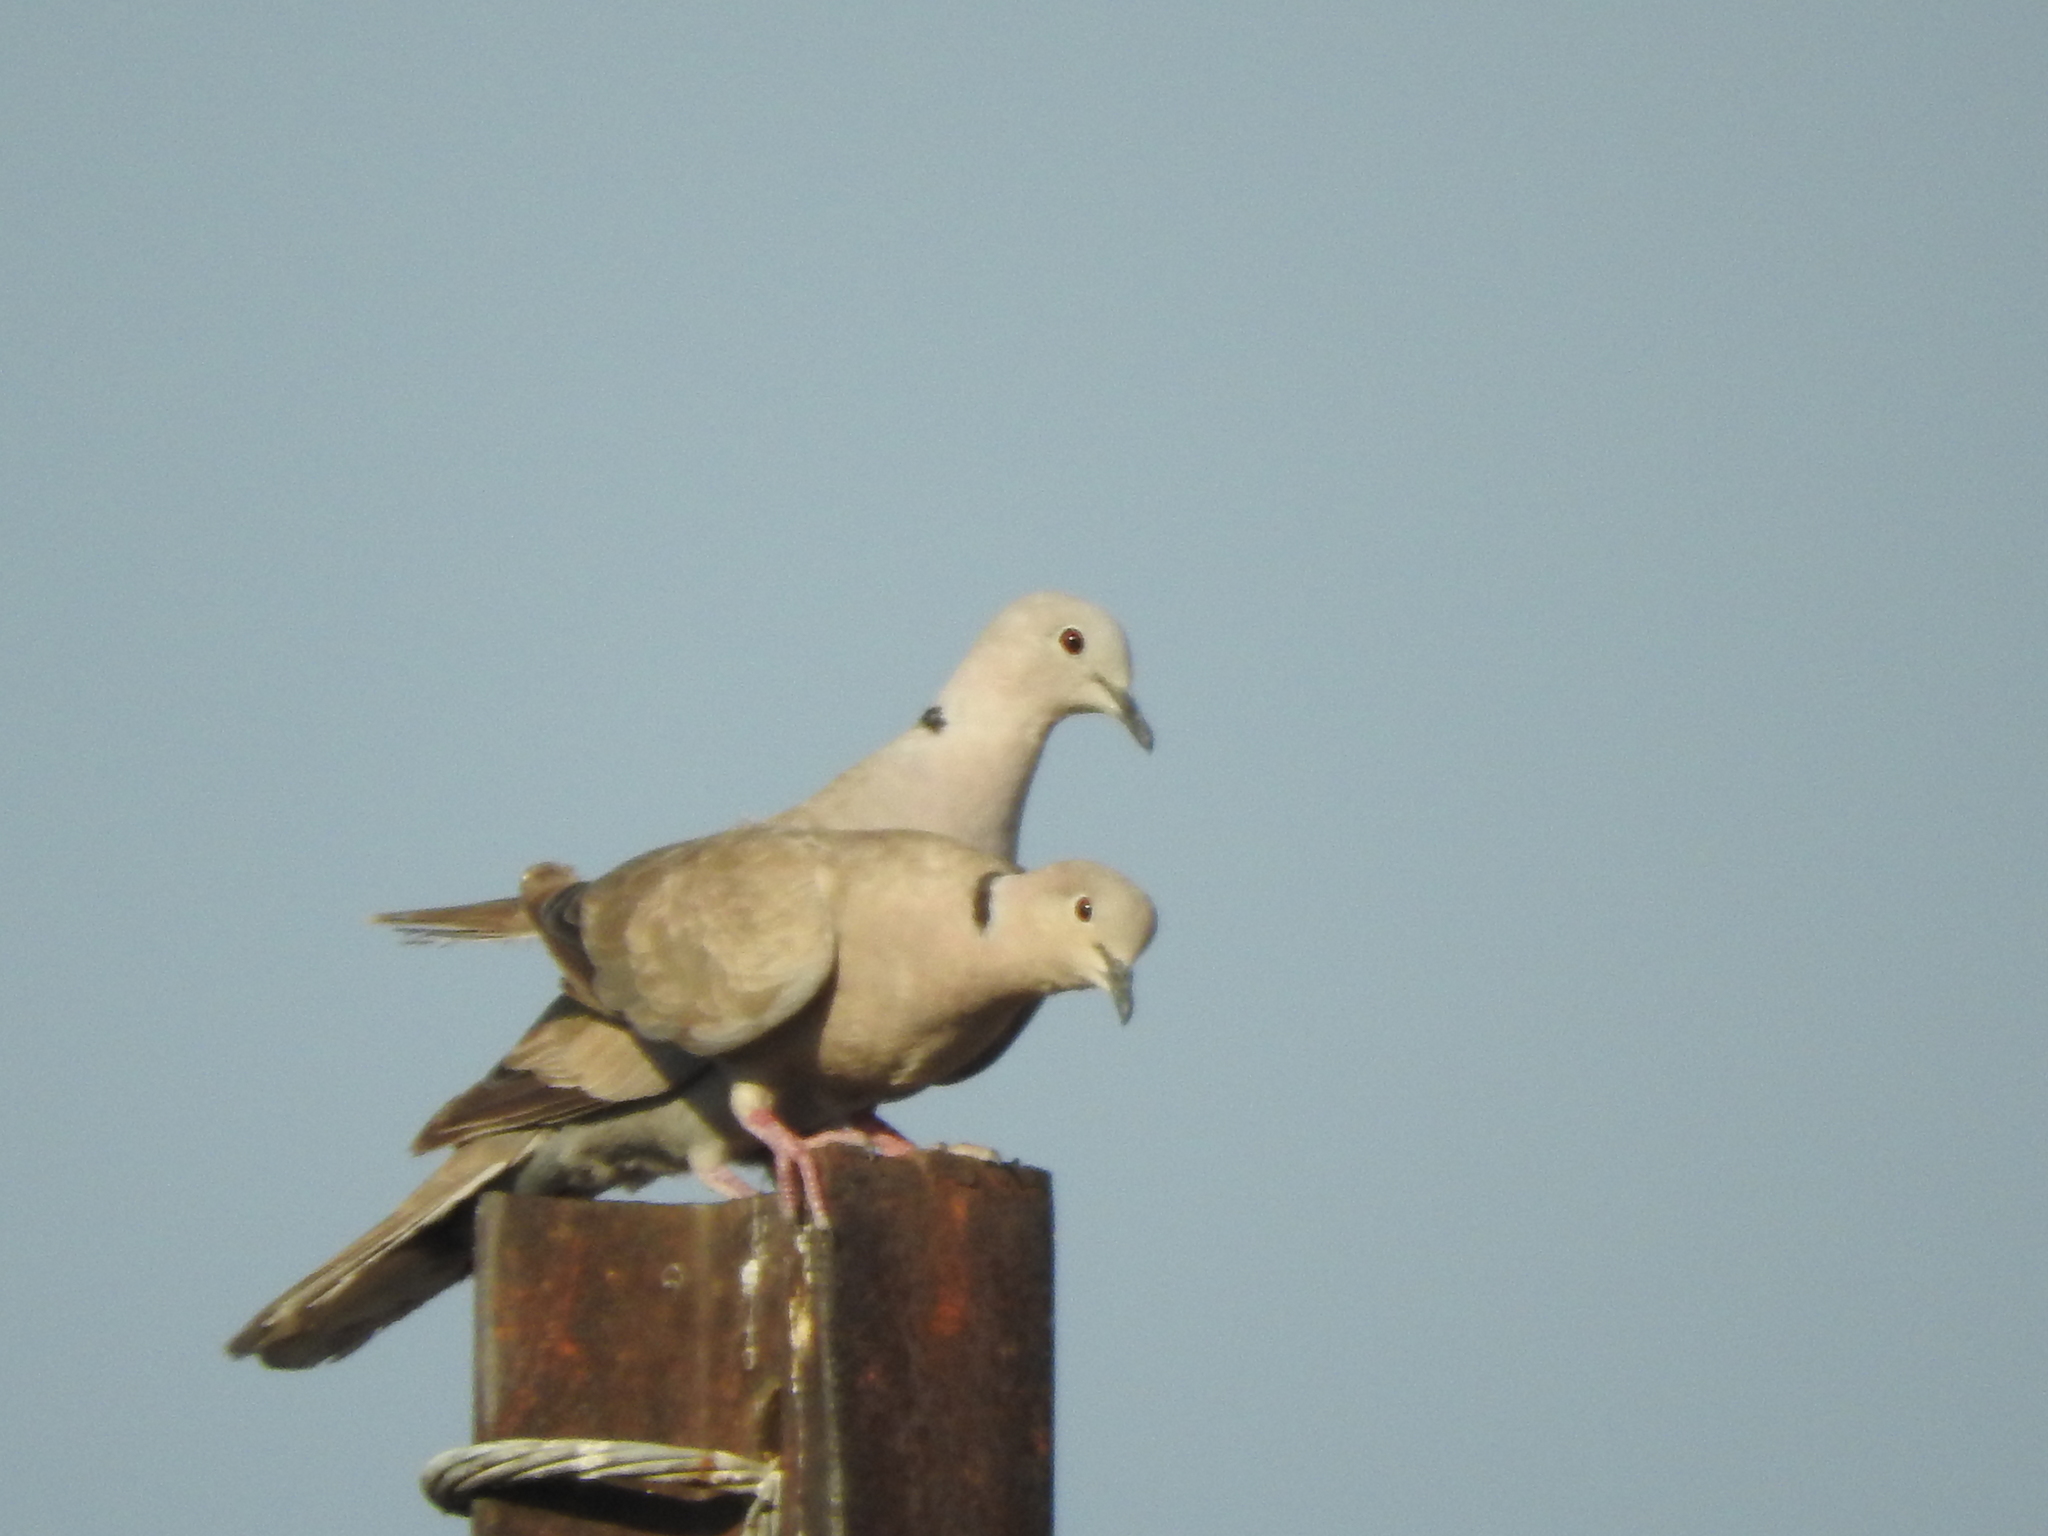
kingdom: Animalia
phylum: Chordata
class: Aves
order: Columbiformes
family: Columbidae
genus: Streptopelia
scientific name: Streptopelia decaocto
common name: Eurasian collared dove
